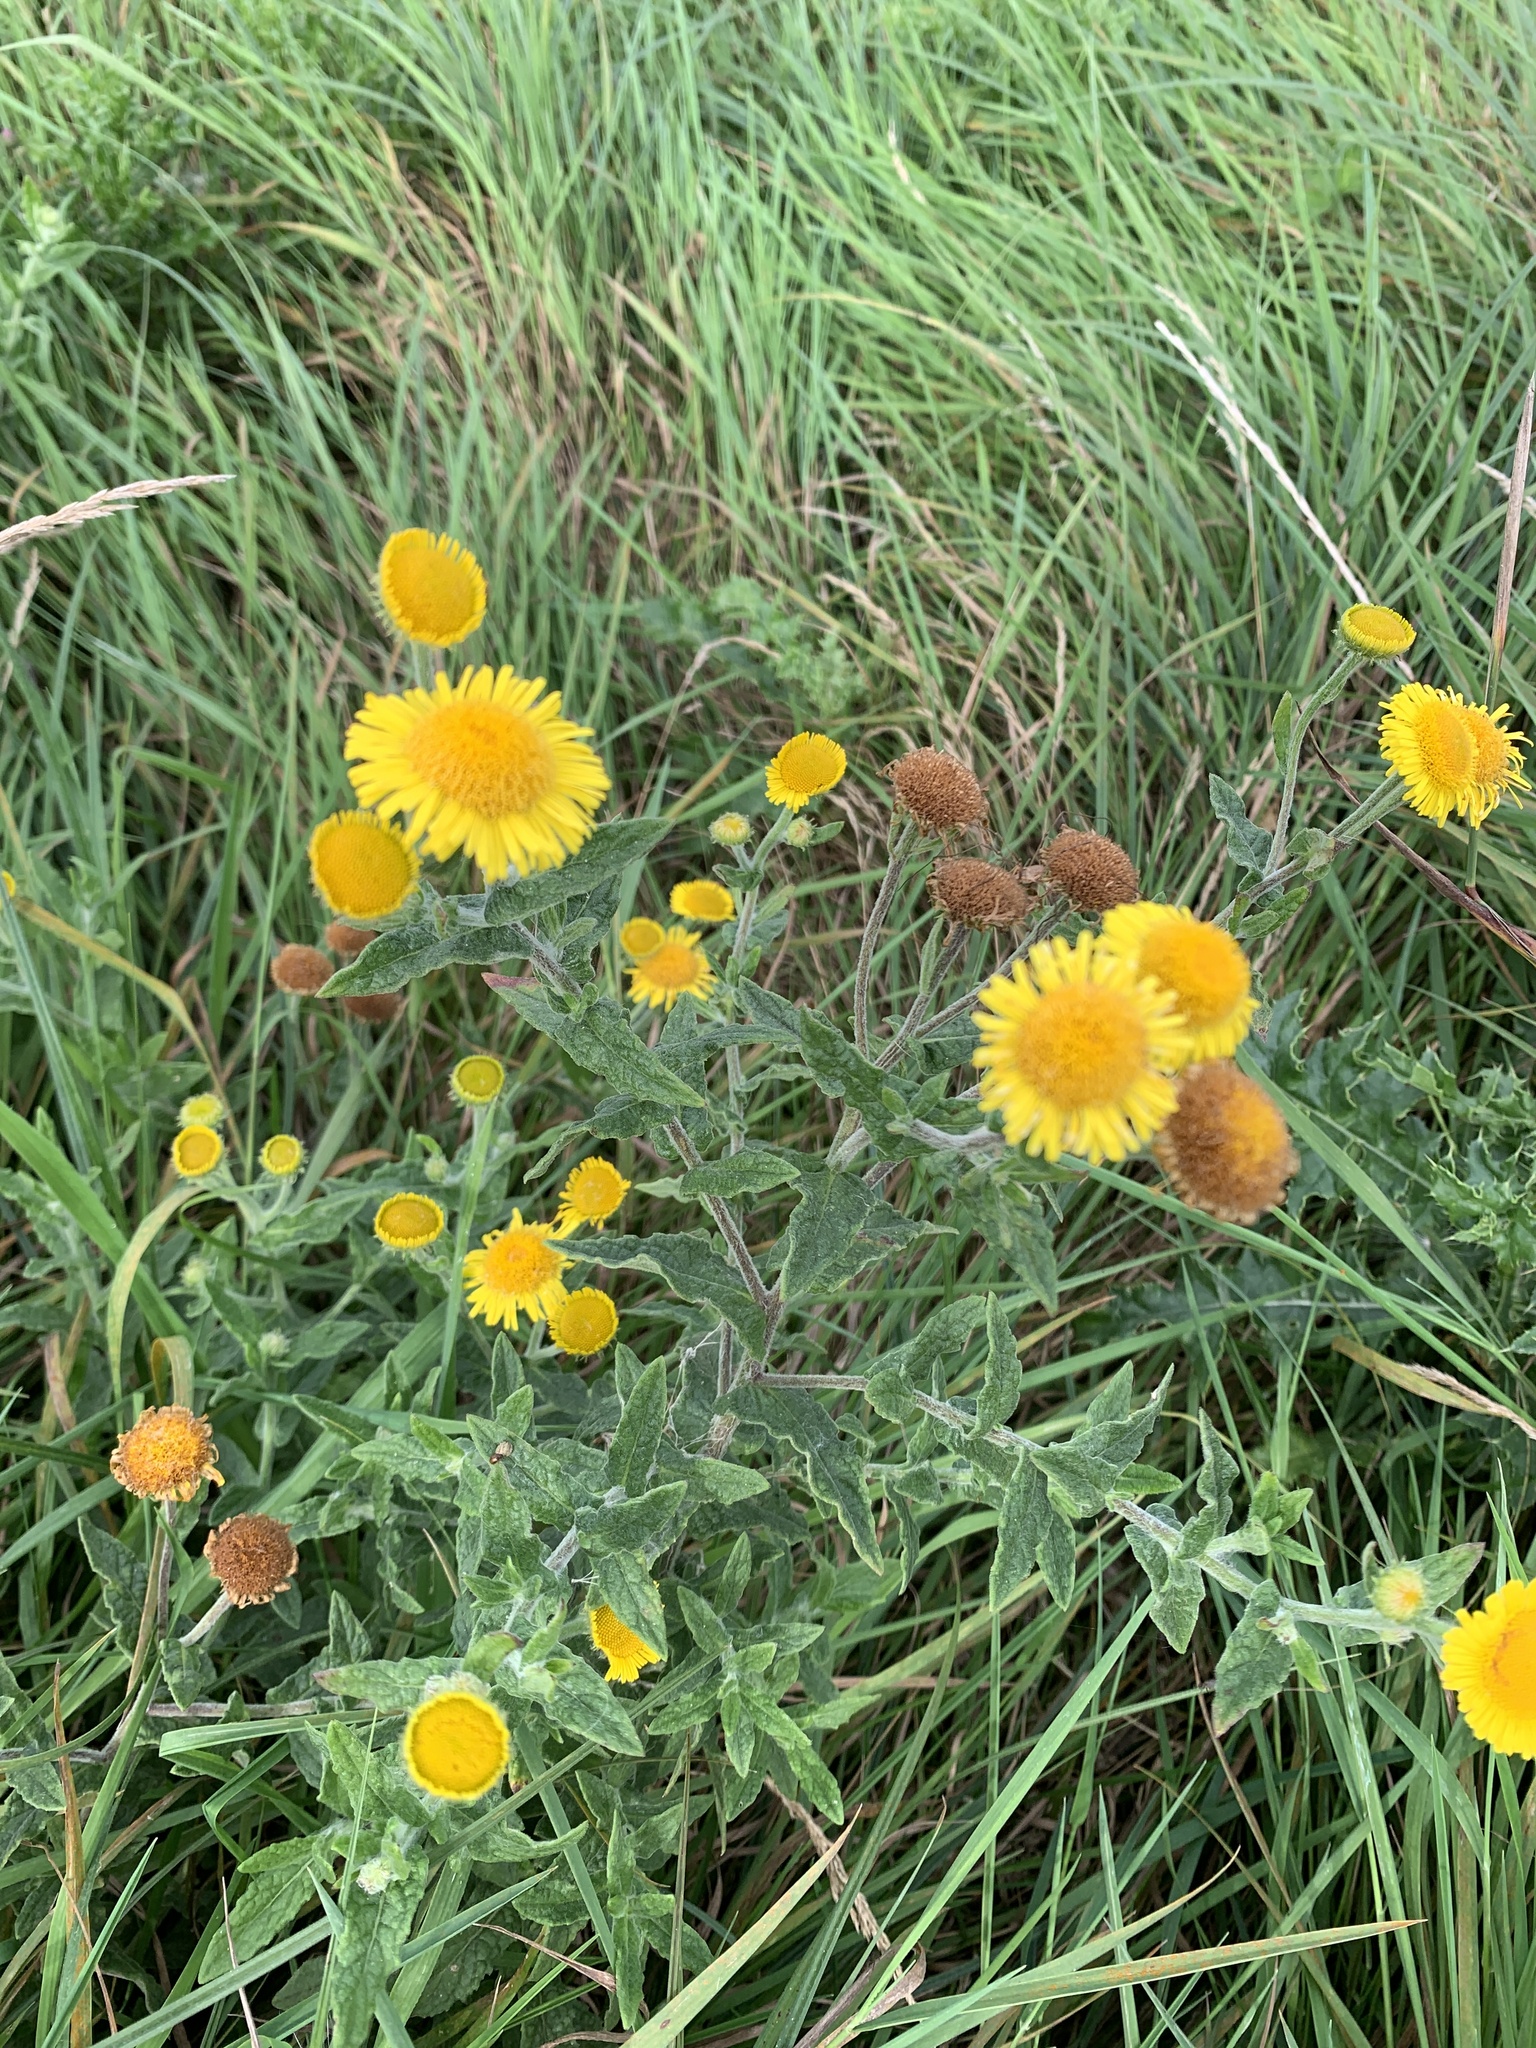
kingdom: Plantae
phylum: Tracheophyta
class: Magnoliopsida
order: Asterales
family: Asteraceae
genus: Pulicaria
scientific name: Pulicaria dysenterica
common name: Common fleabane
